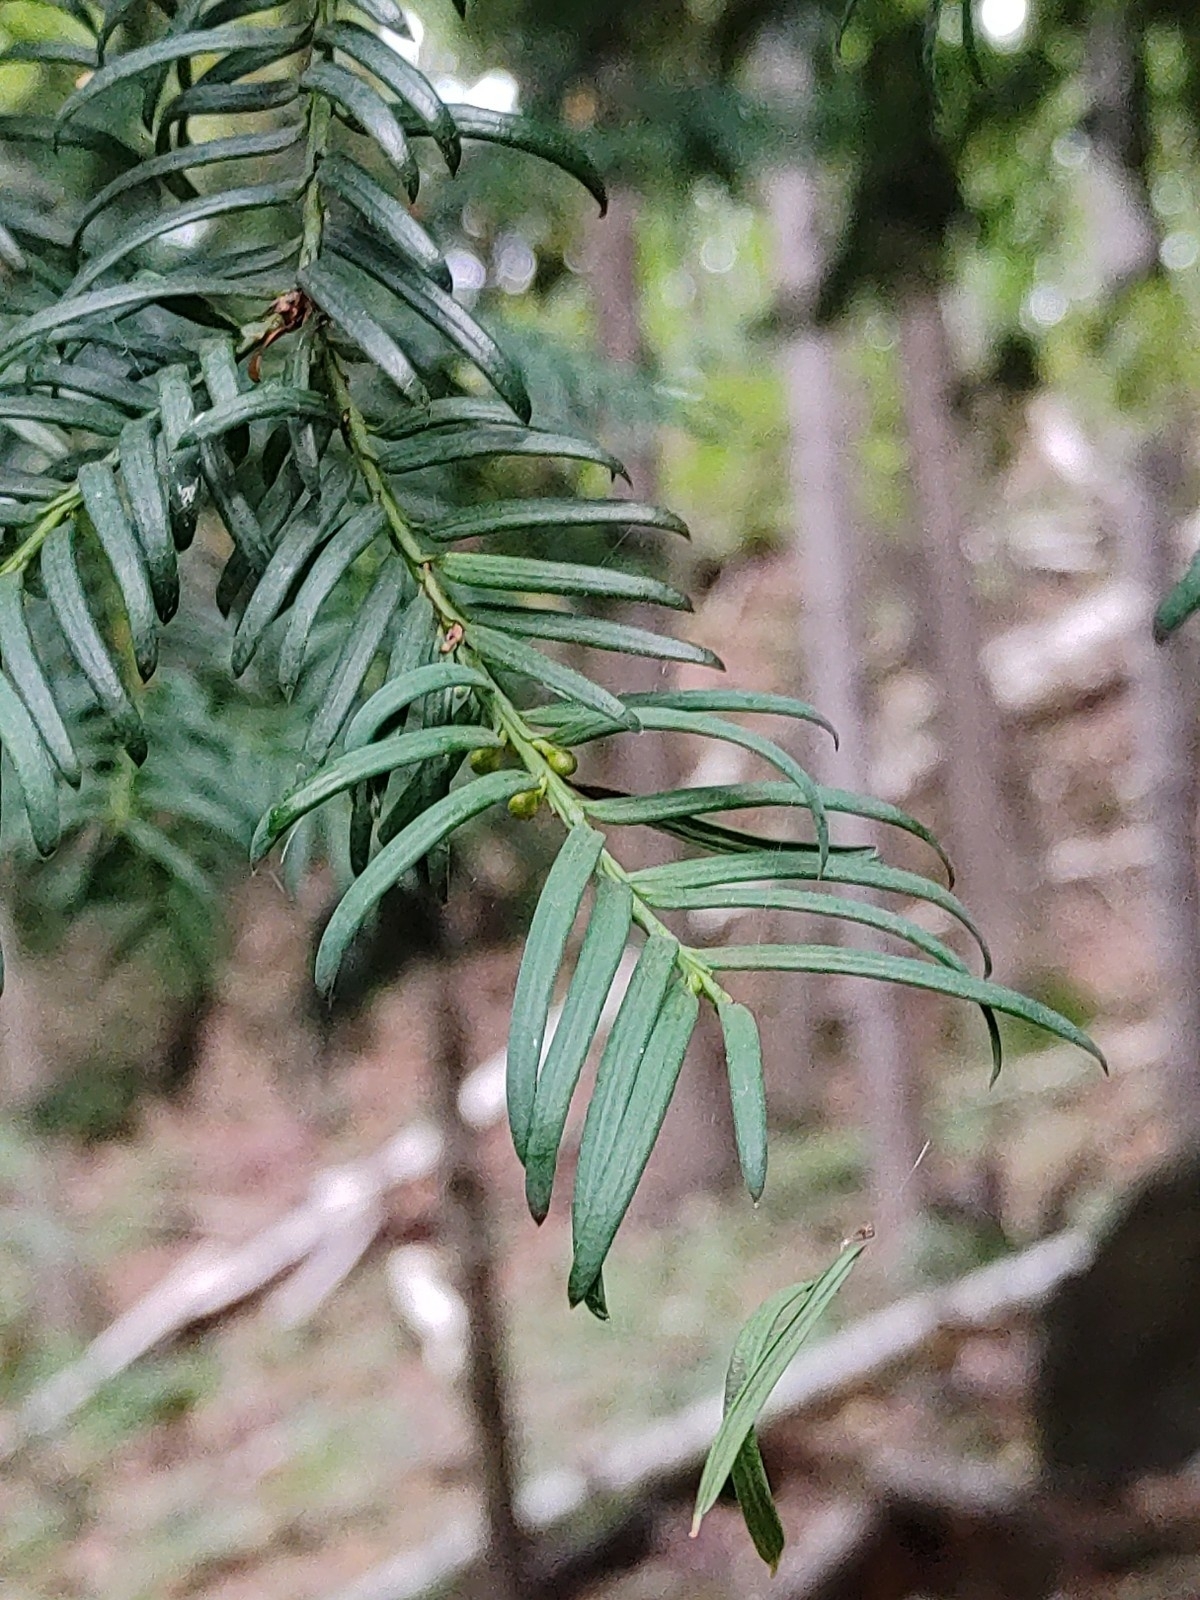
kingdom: Plantae
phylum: Tracheophyta
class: Pinopsida
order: Pinales
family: Taxaceae
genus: Taxus
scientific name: Taxus baccata
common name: Yew
